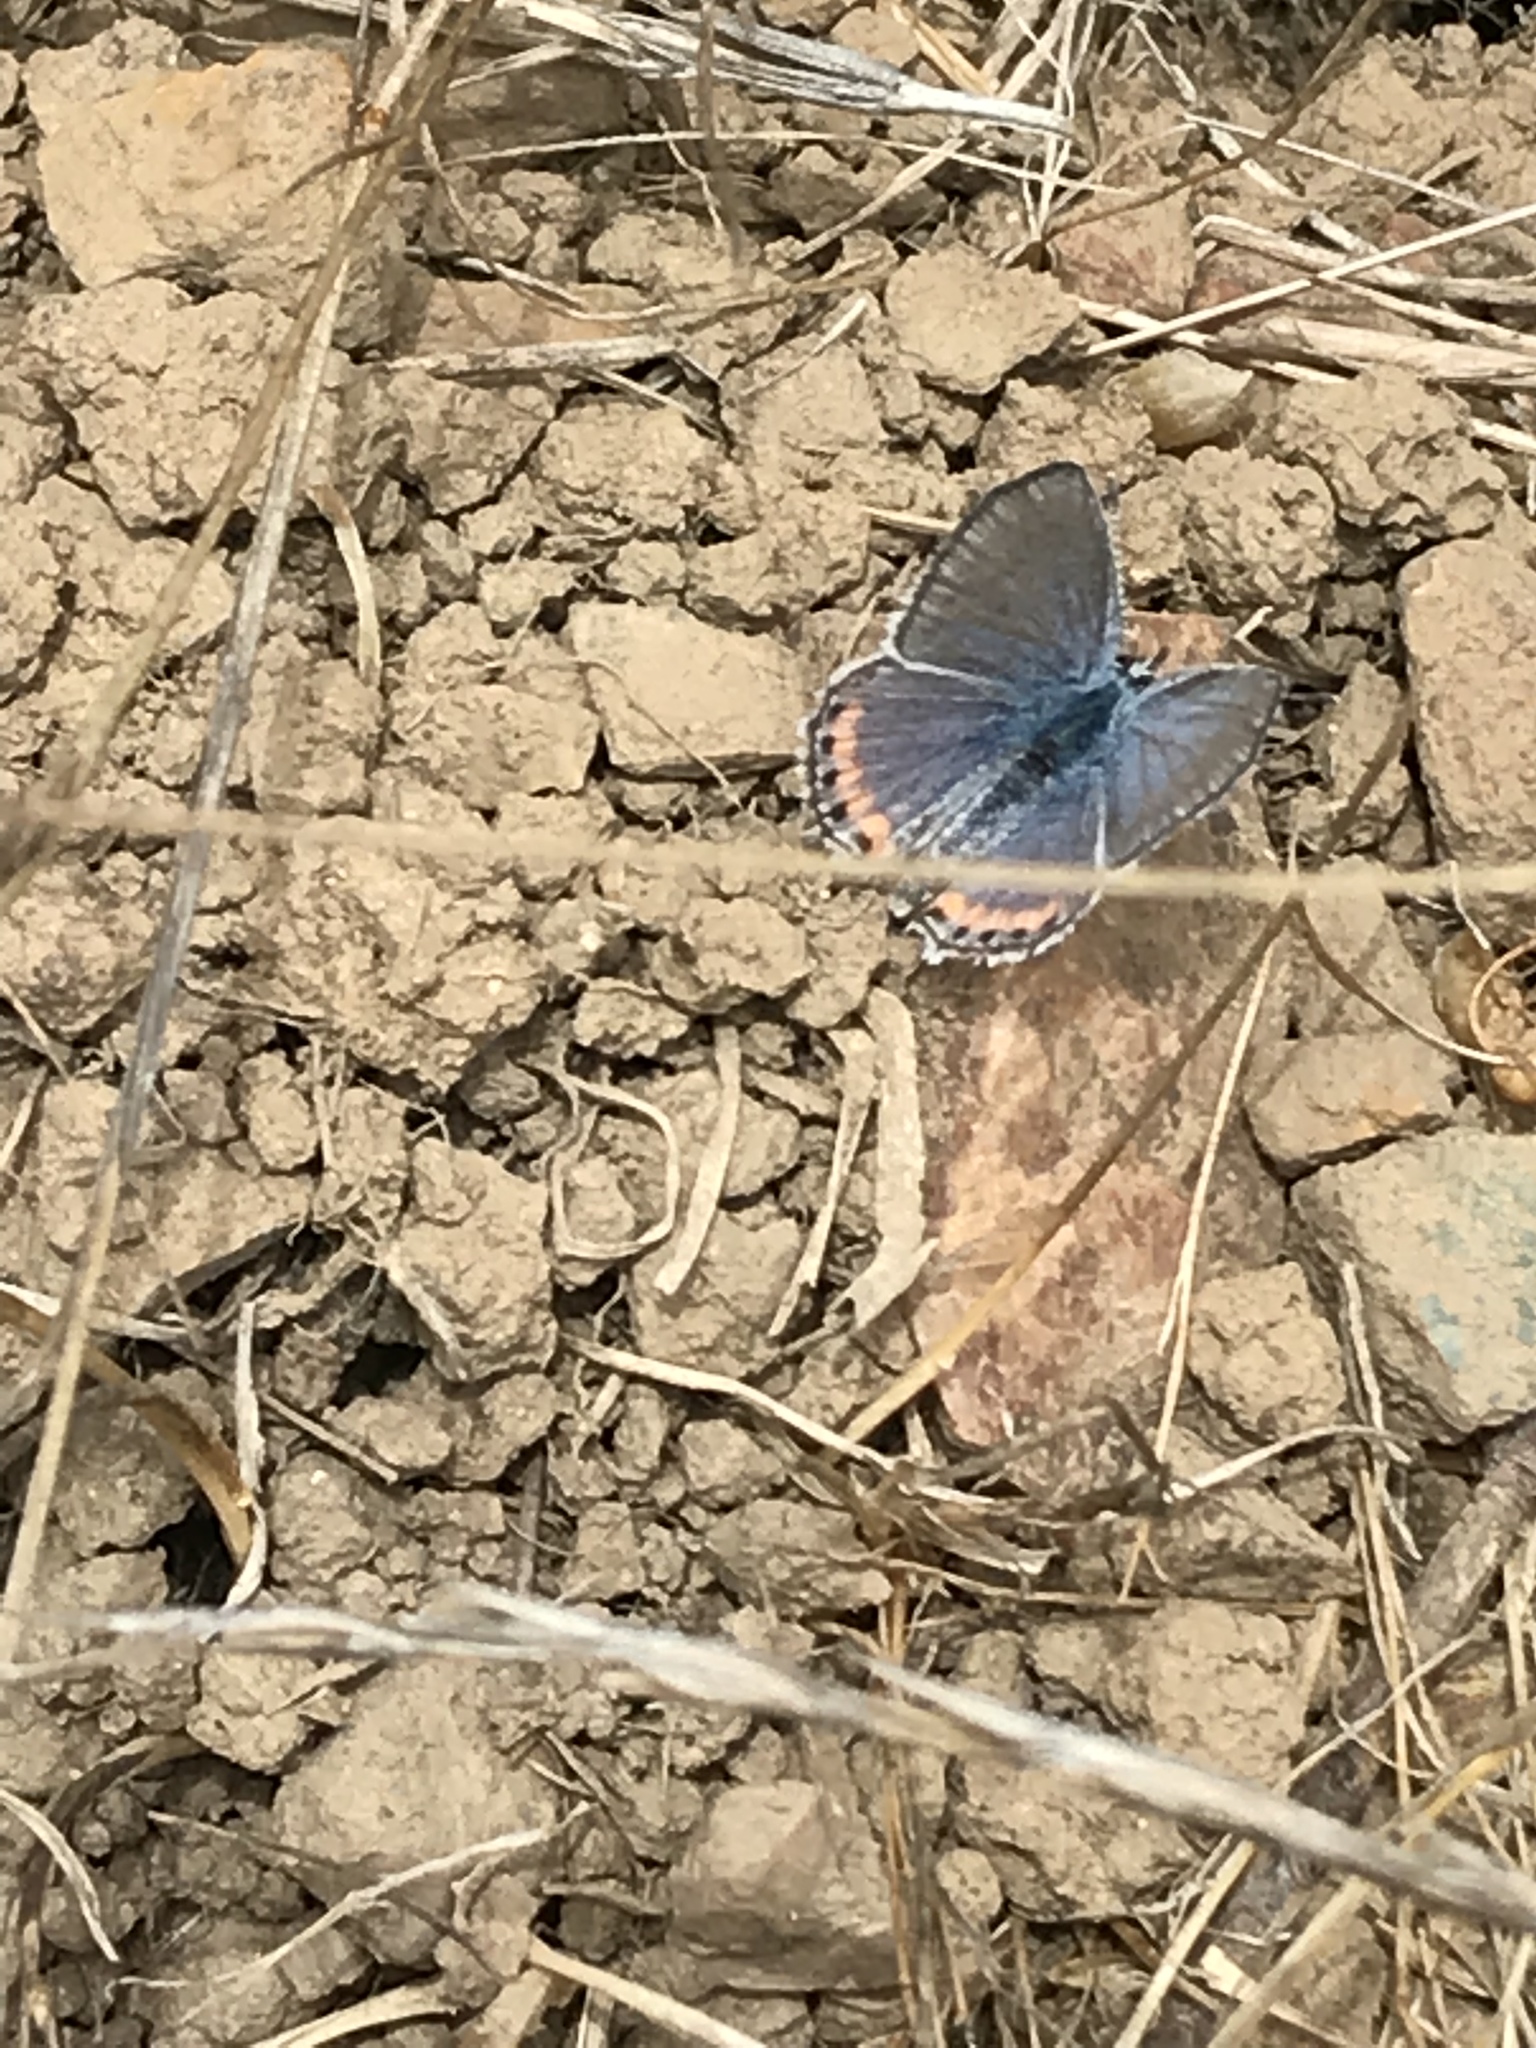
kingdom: Animalia
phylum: Arthropoda
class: Insecta
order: Lepidoptera
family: Lycaenidae
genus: Icaricia
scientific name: Icaricia acmon
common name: Acmon blue
